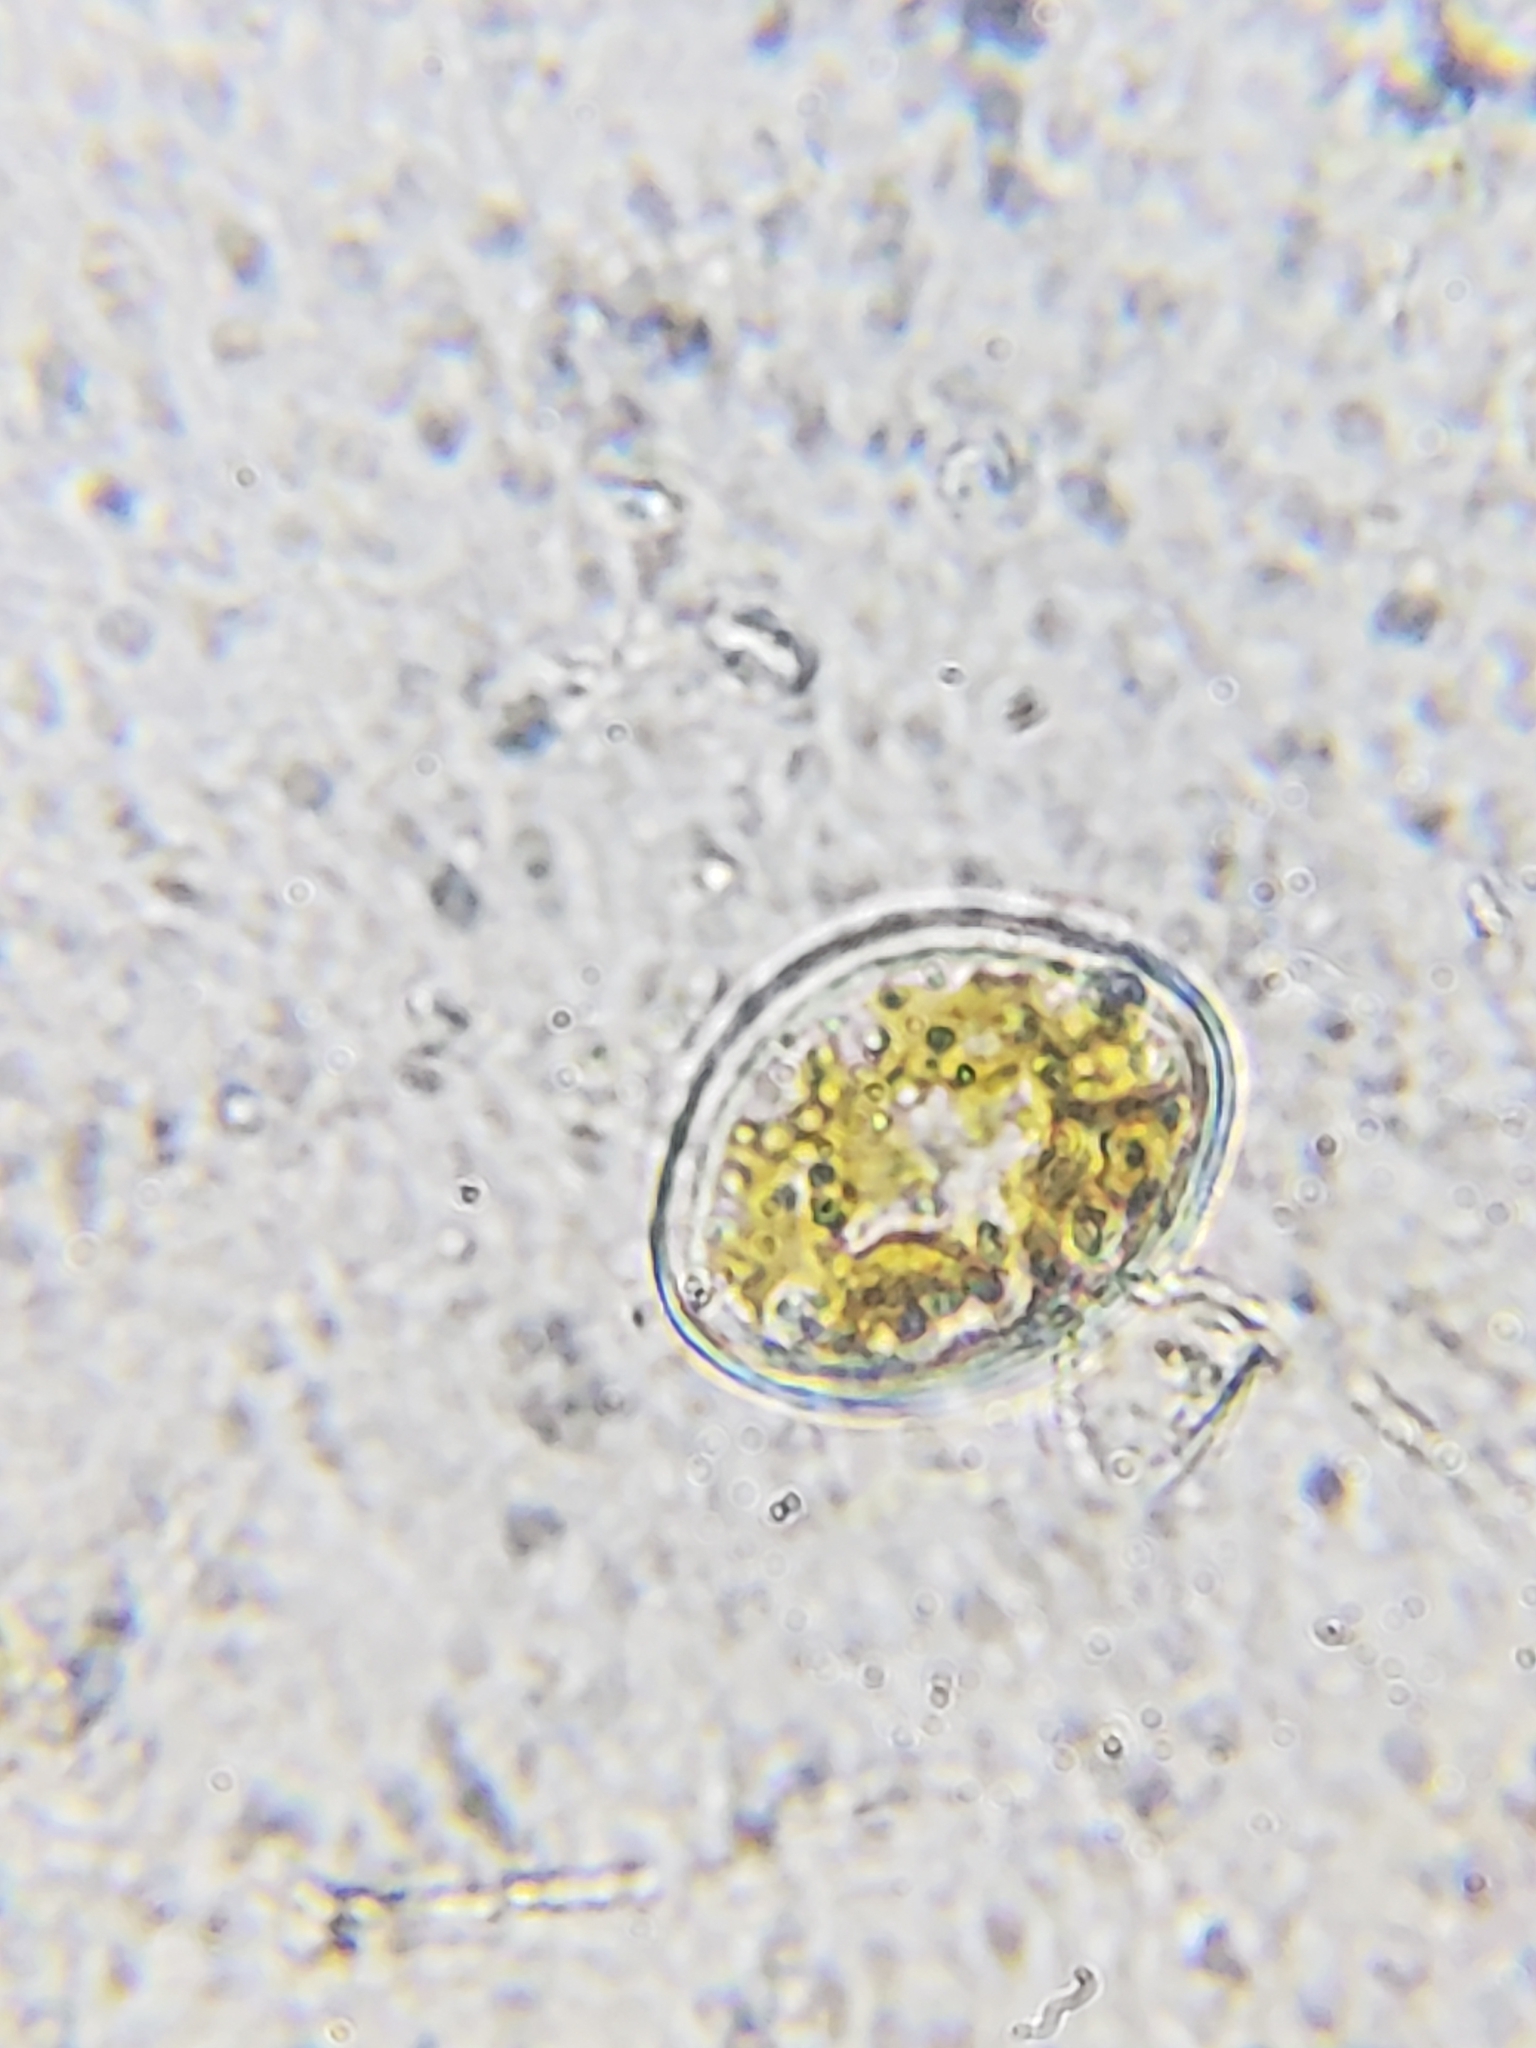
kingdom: Chromista
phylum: Ochrophyta
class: Bacillariophyceae
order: Achnanthales
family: Cocconeidaceae
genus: Cocconeis
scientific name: Cocconeis pediculus
